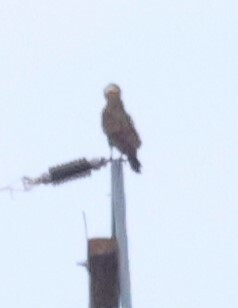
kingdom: Animalia
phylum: Chordata
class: Aves
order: Accipitriformes
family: Accipitridae
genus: Circaetus
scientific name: Circaetus cinereus
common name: Brown snake eagle
